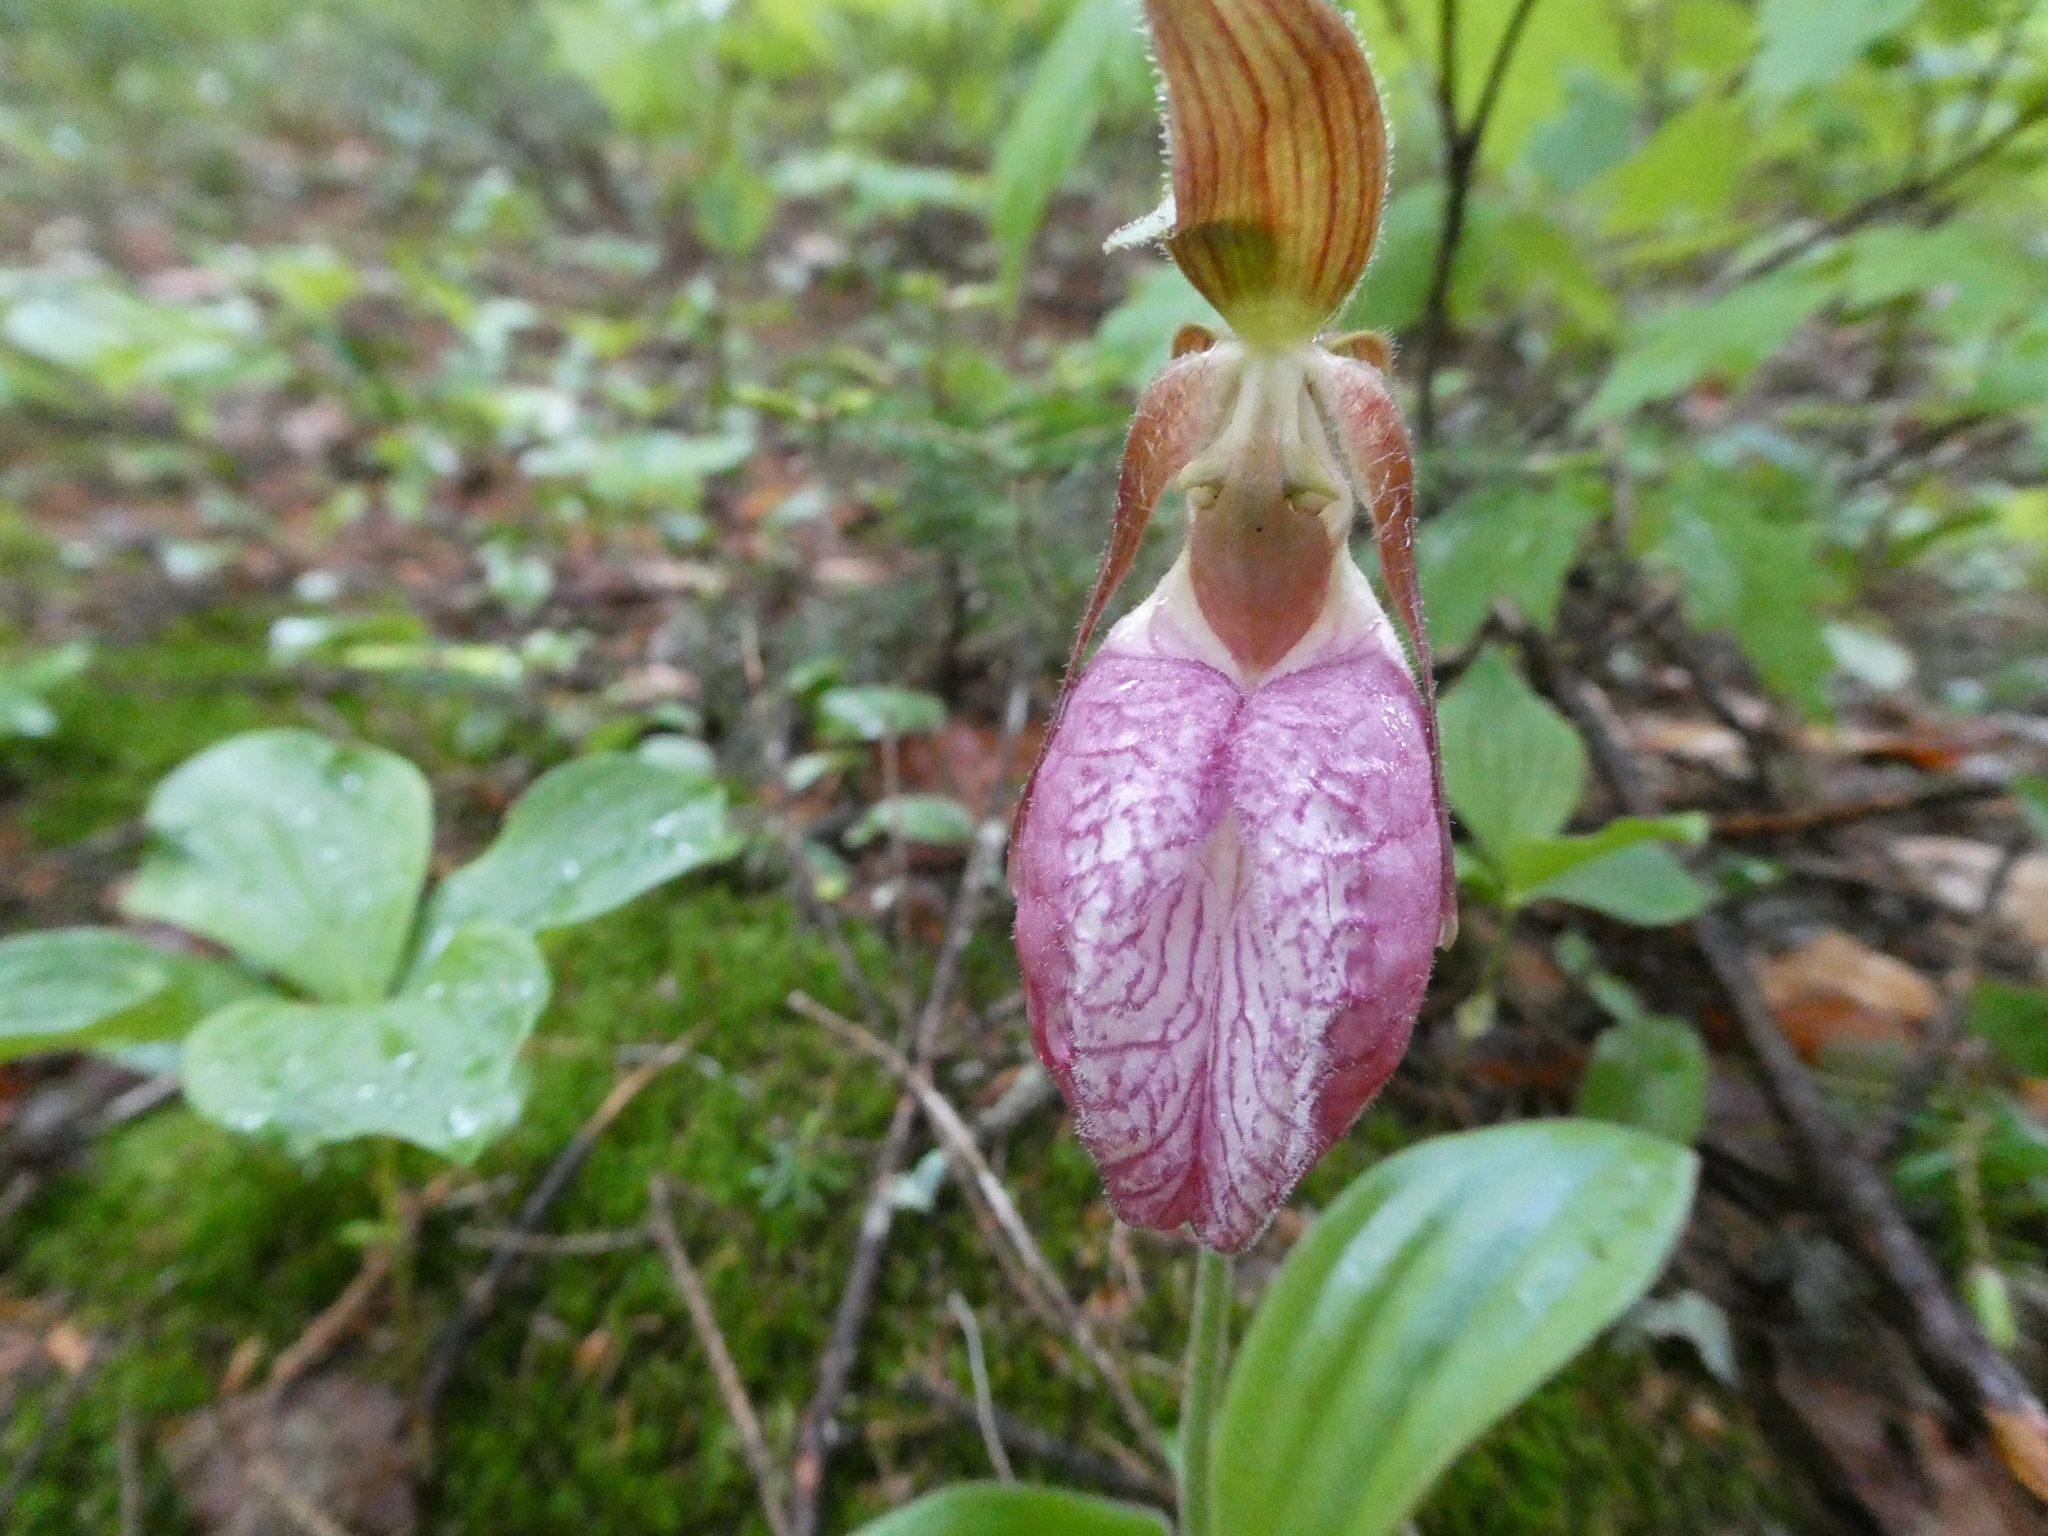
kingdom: Plantae
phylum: Tracheophyta
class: Liliopsida
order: Asparagales
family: Orchidaceae
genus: Cypripedium
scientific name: Cypripedium acaule
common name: Pink lady's-slipper
